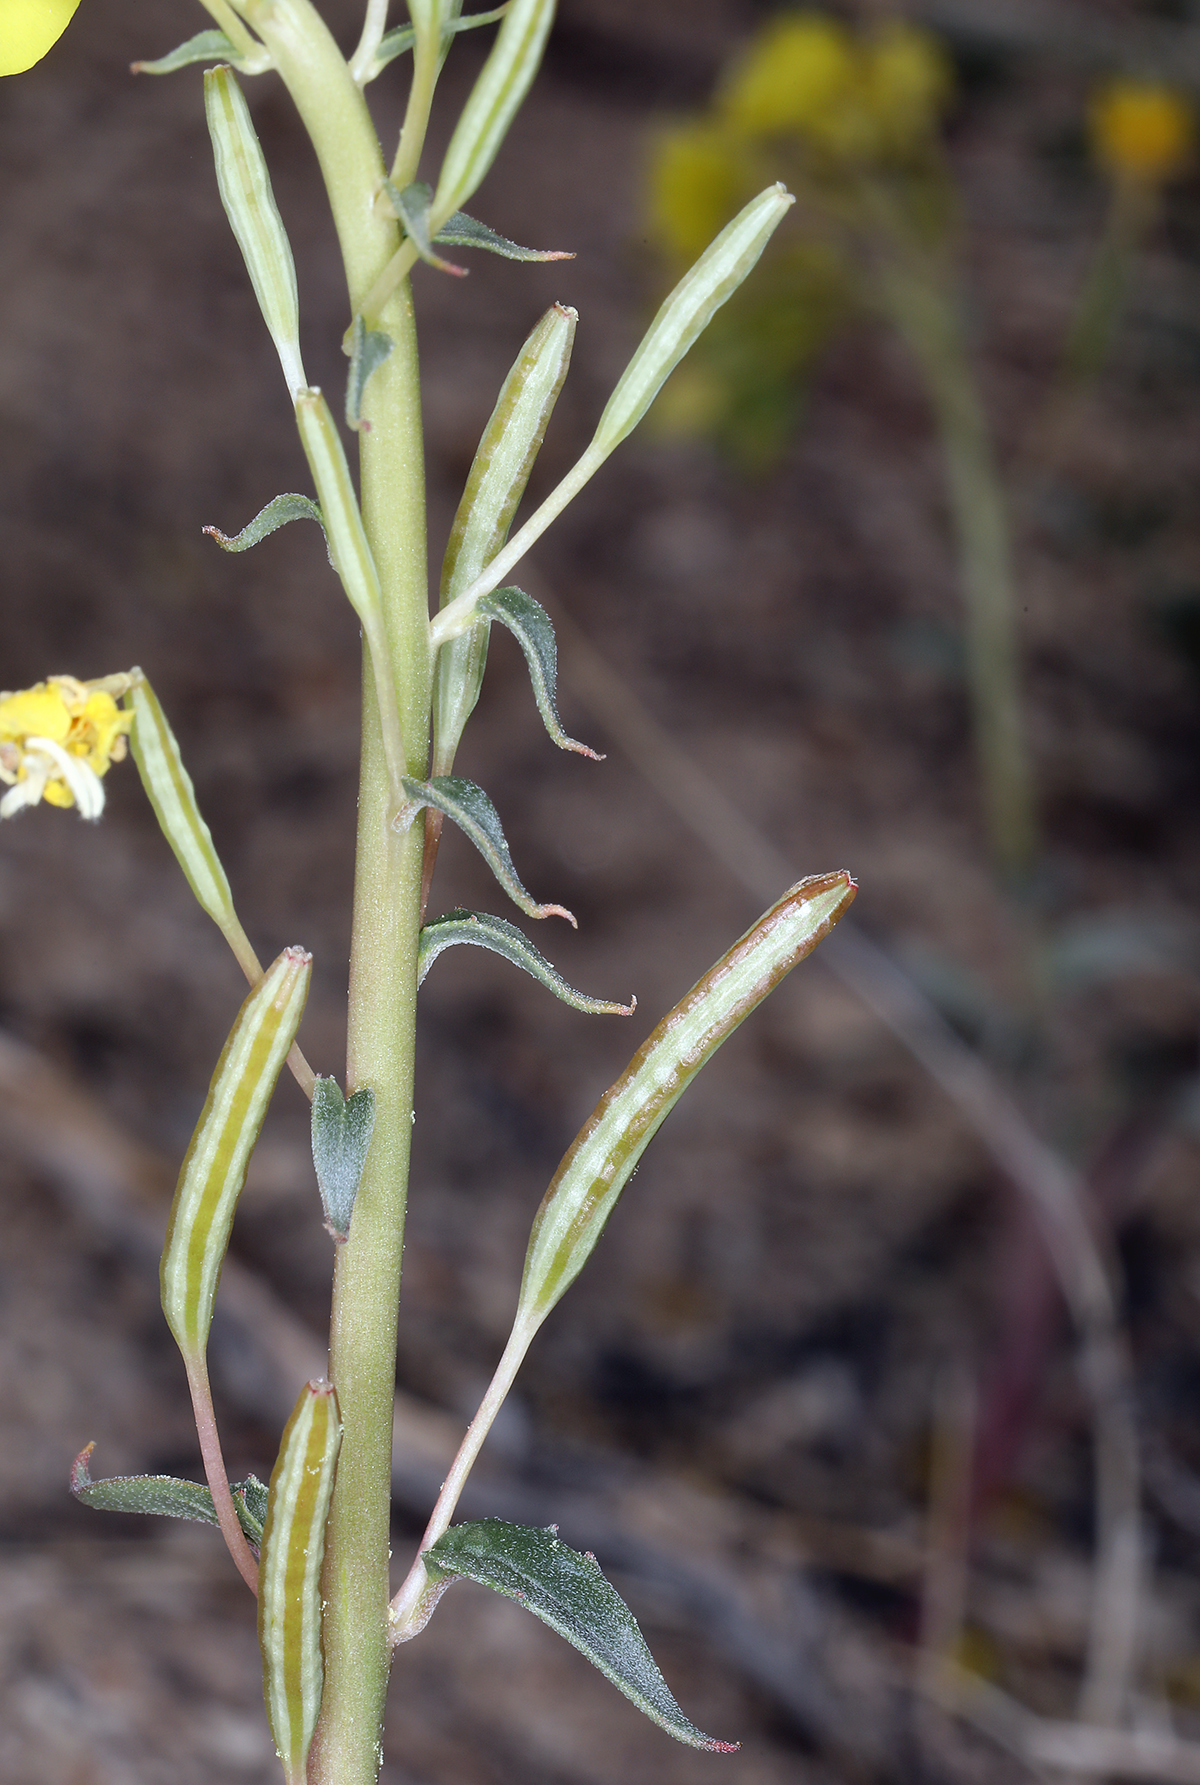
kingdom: Plantae
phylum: Tracheophyta
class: Magnoliopsida
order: Myrtales
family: Onagraceae
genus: Chylismia
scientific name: Chylismia claviformis
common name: Browneyes
